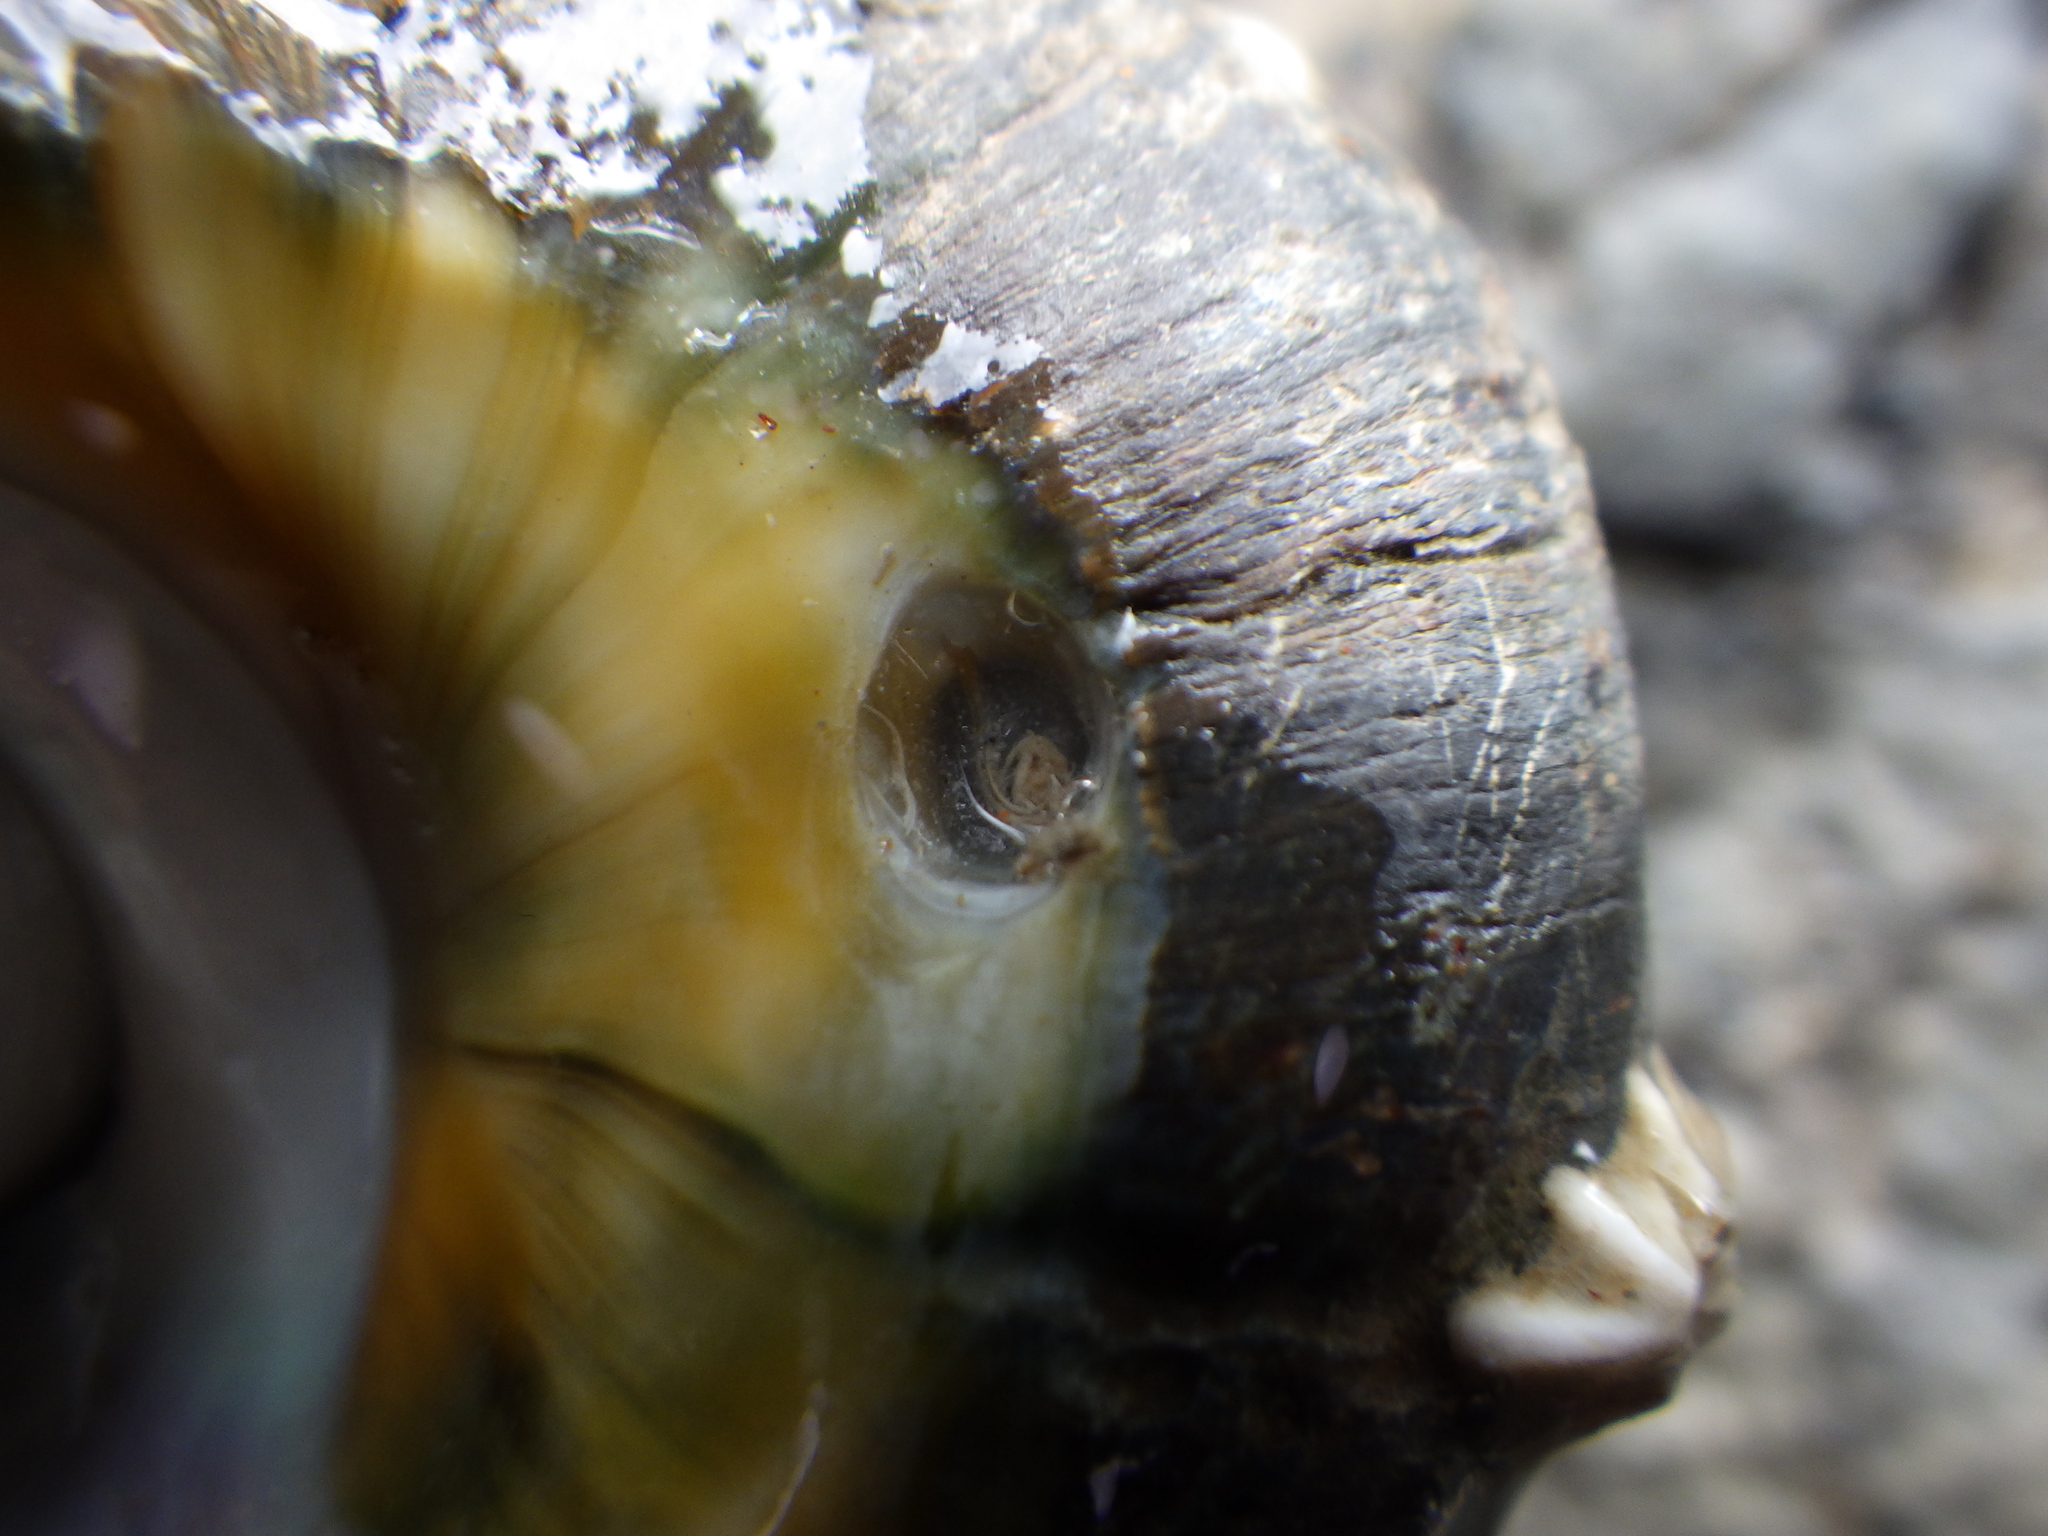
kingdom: Animalia
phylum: Mollusca
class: Gastropoda
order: Neogastropoda
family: Muricidae
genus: Haustrum
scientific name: Haustrum haustorium
